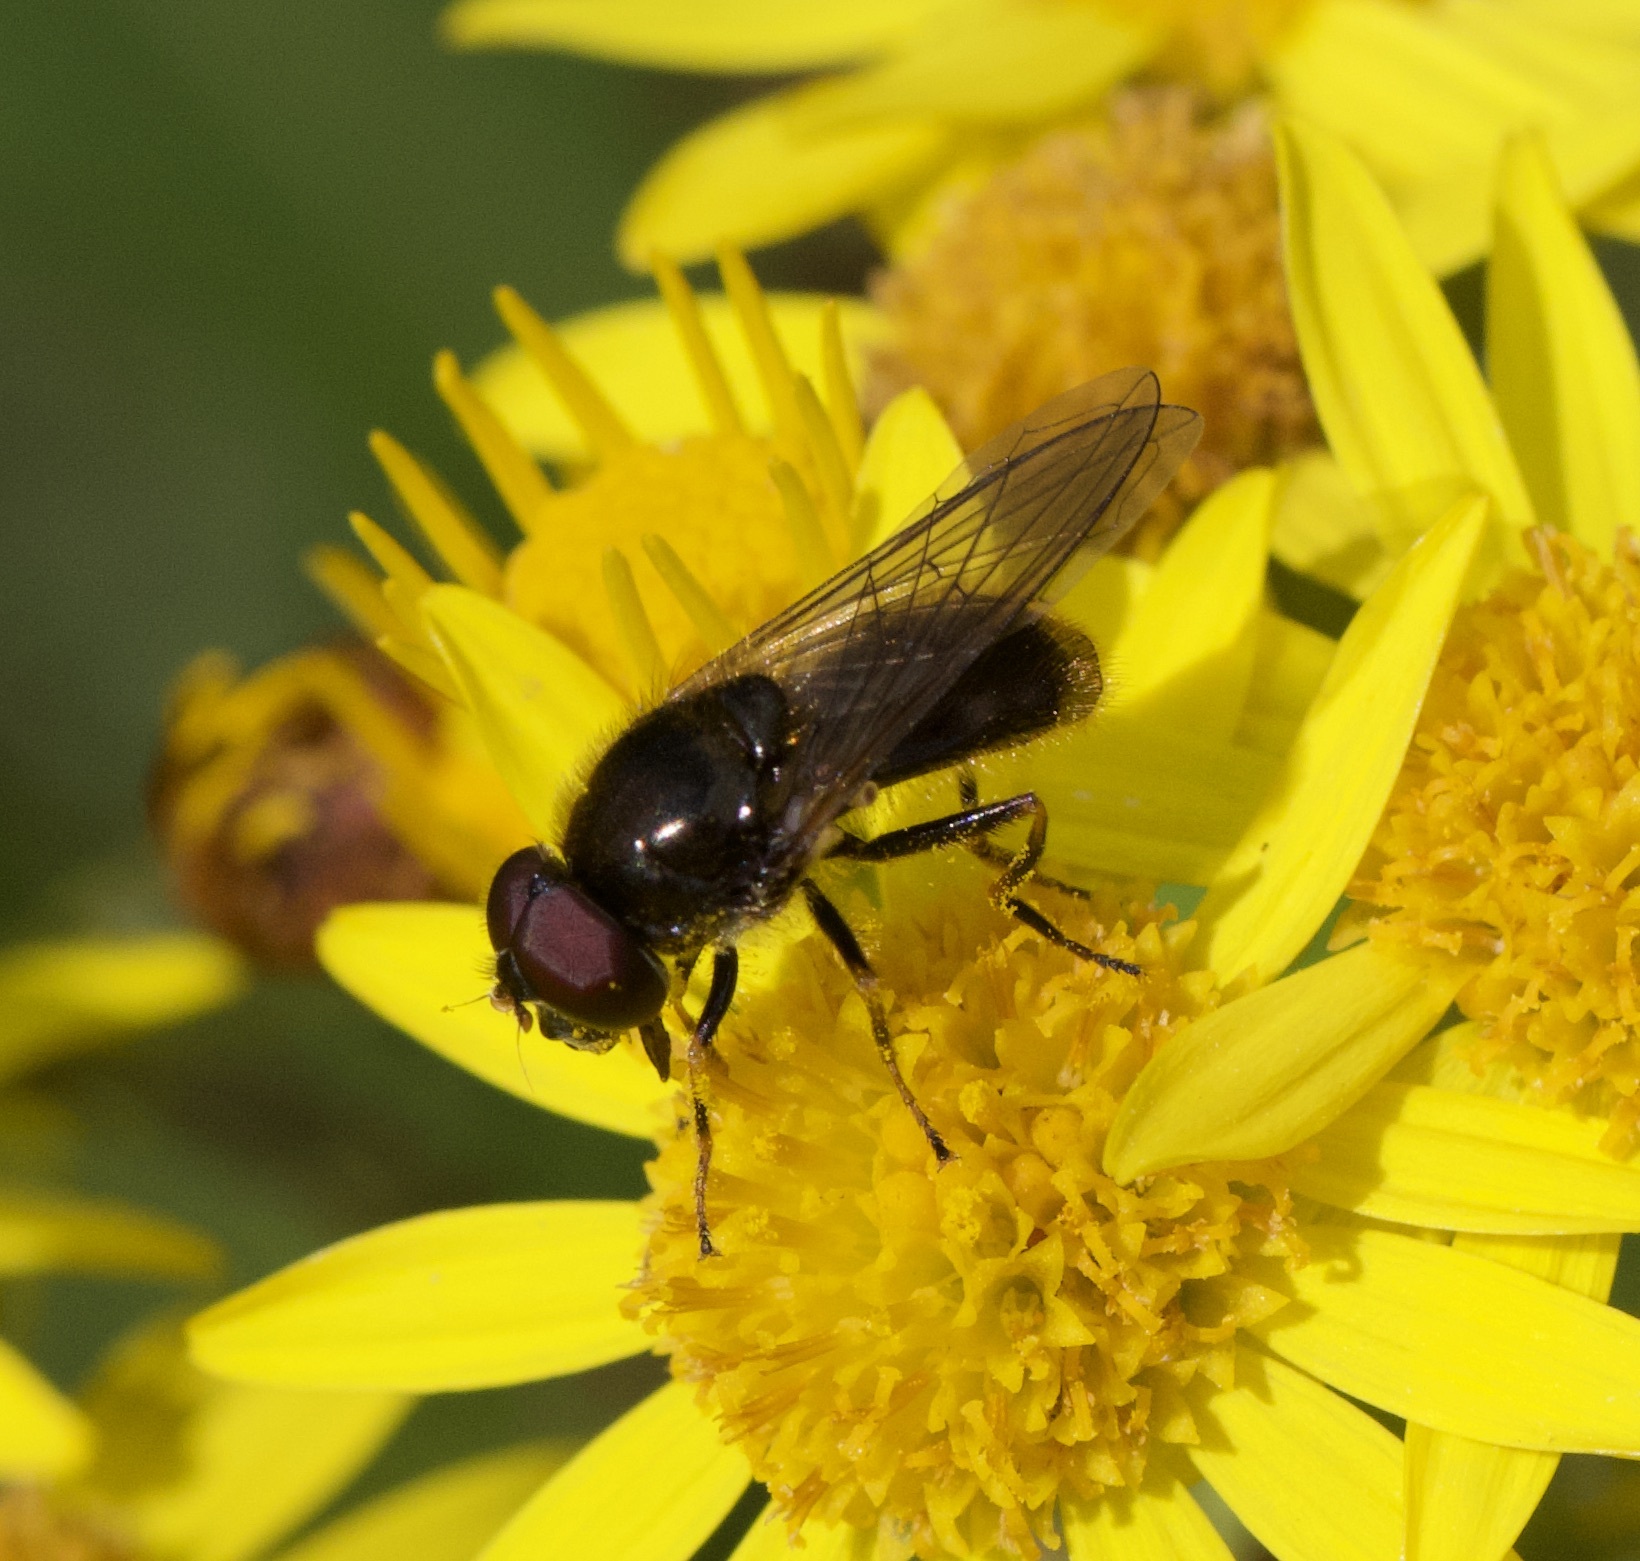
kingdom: Animalia
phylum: Arthropoda
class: Insecta
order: Diptera
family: Syrphidae
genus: Cheilosia
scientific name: Cheilosia
